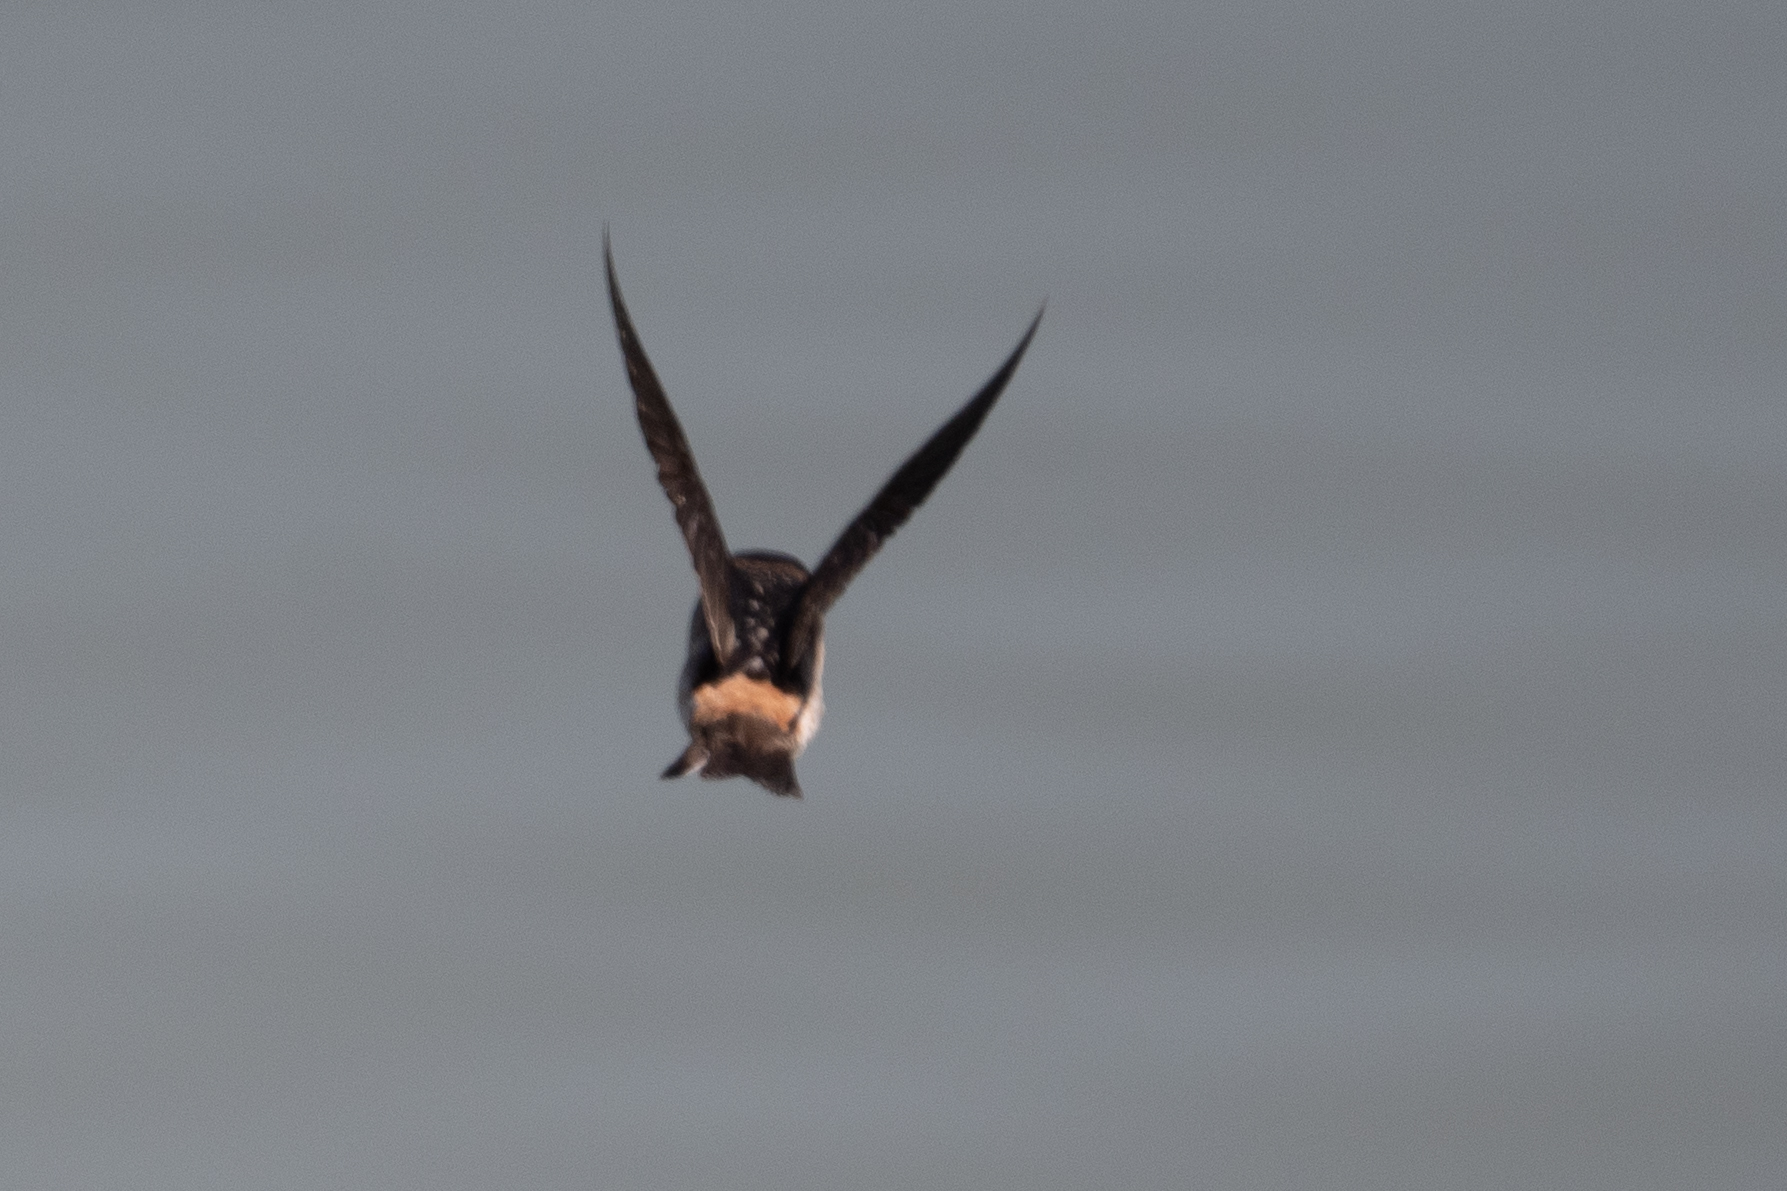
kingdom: Animalia
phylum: Chordata
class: Aves
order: Passeriformes
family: Hirundinidae
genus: Petrochelidon
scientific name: Petrochelidon pyrrhonota
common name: American cliff swallow
